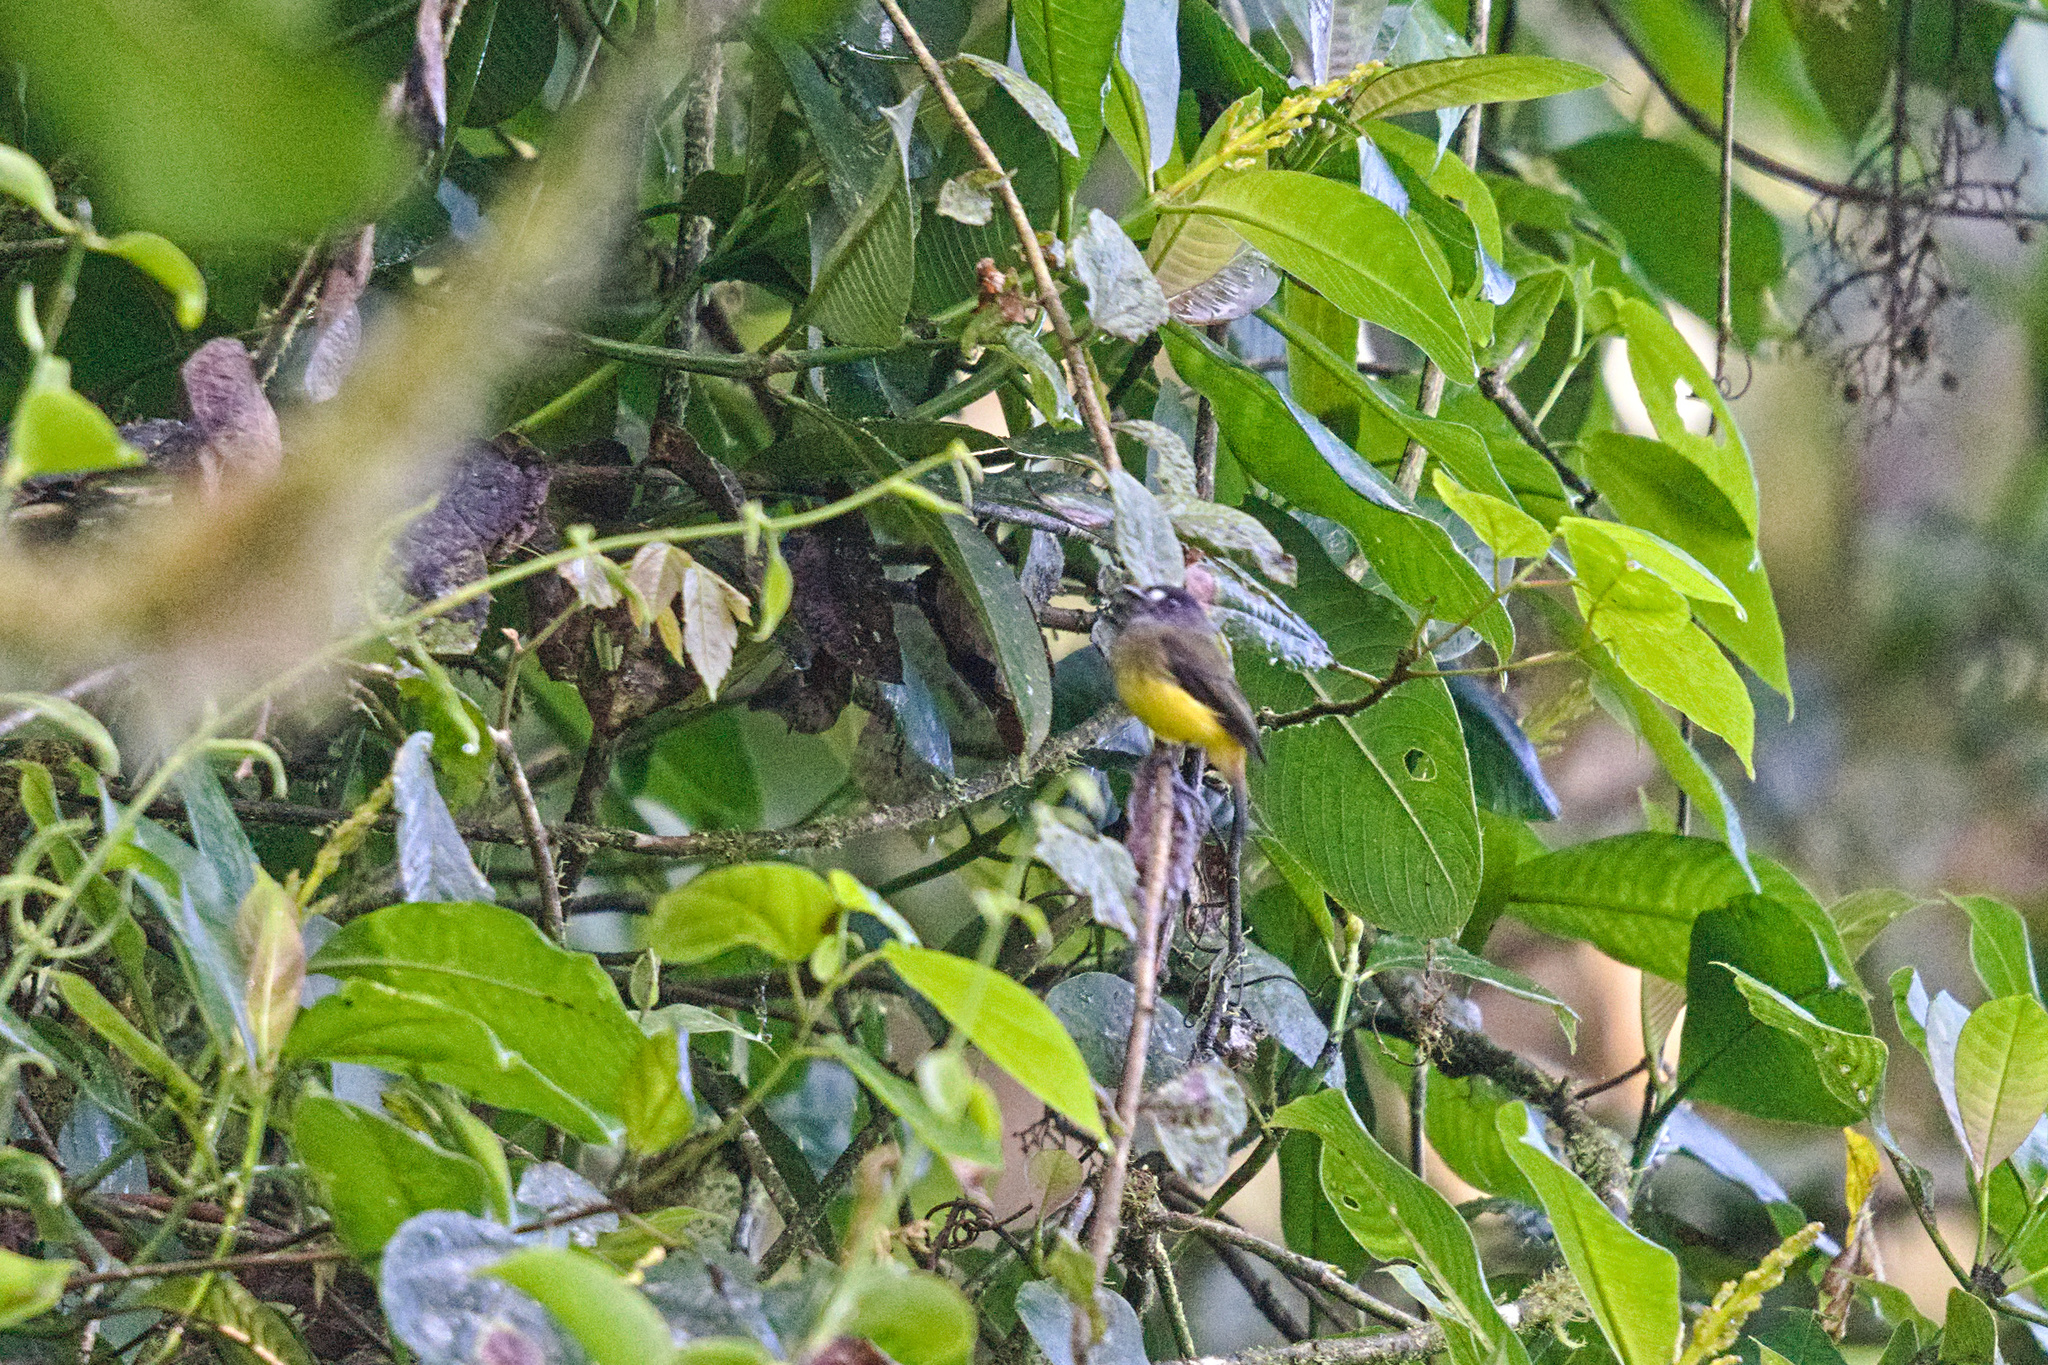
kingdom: Animalia
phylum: Chordata
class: Aves
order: Passeriformes
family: Tyrannidae
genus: Myiotriccus
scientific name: Myiotriccus ornatus
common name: Ornate flycatcher
